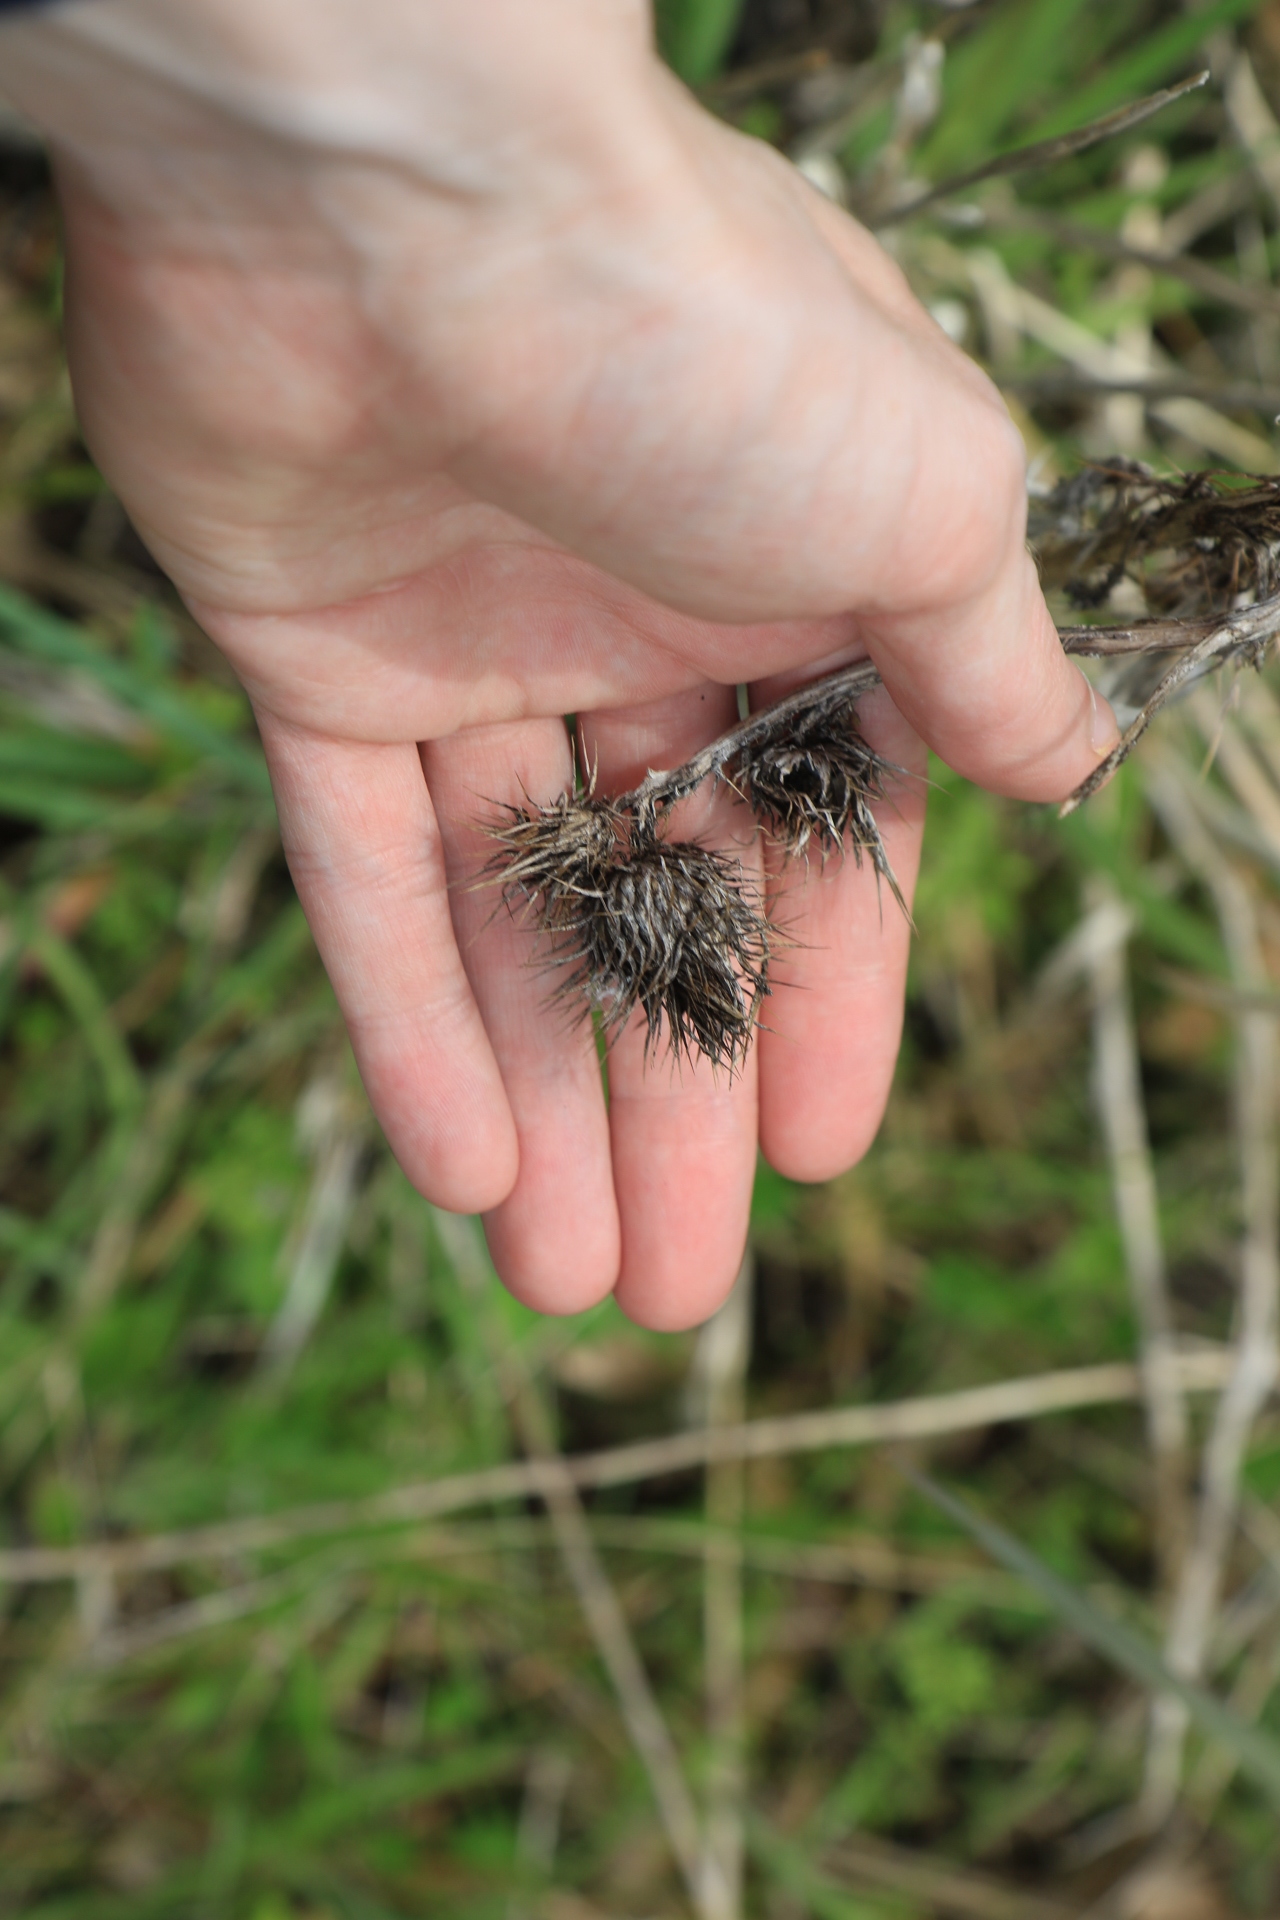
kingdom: Plantae
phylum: Tracheophyta
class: Magnoliopsida
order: Asterales
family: Asteraceae
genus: Cirsium
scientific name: Cirsium vulgare
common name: Bull thistle
